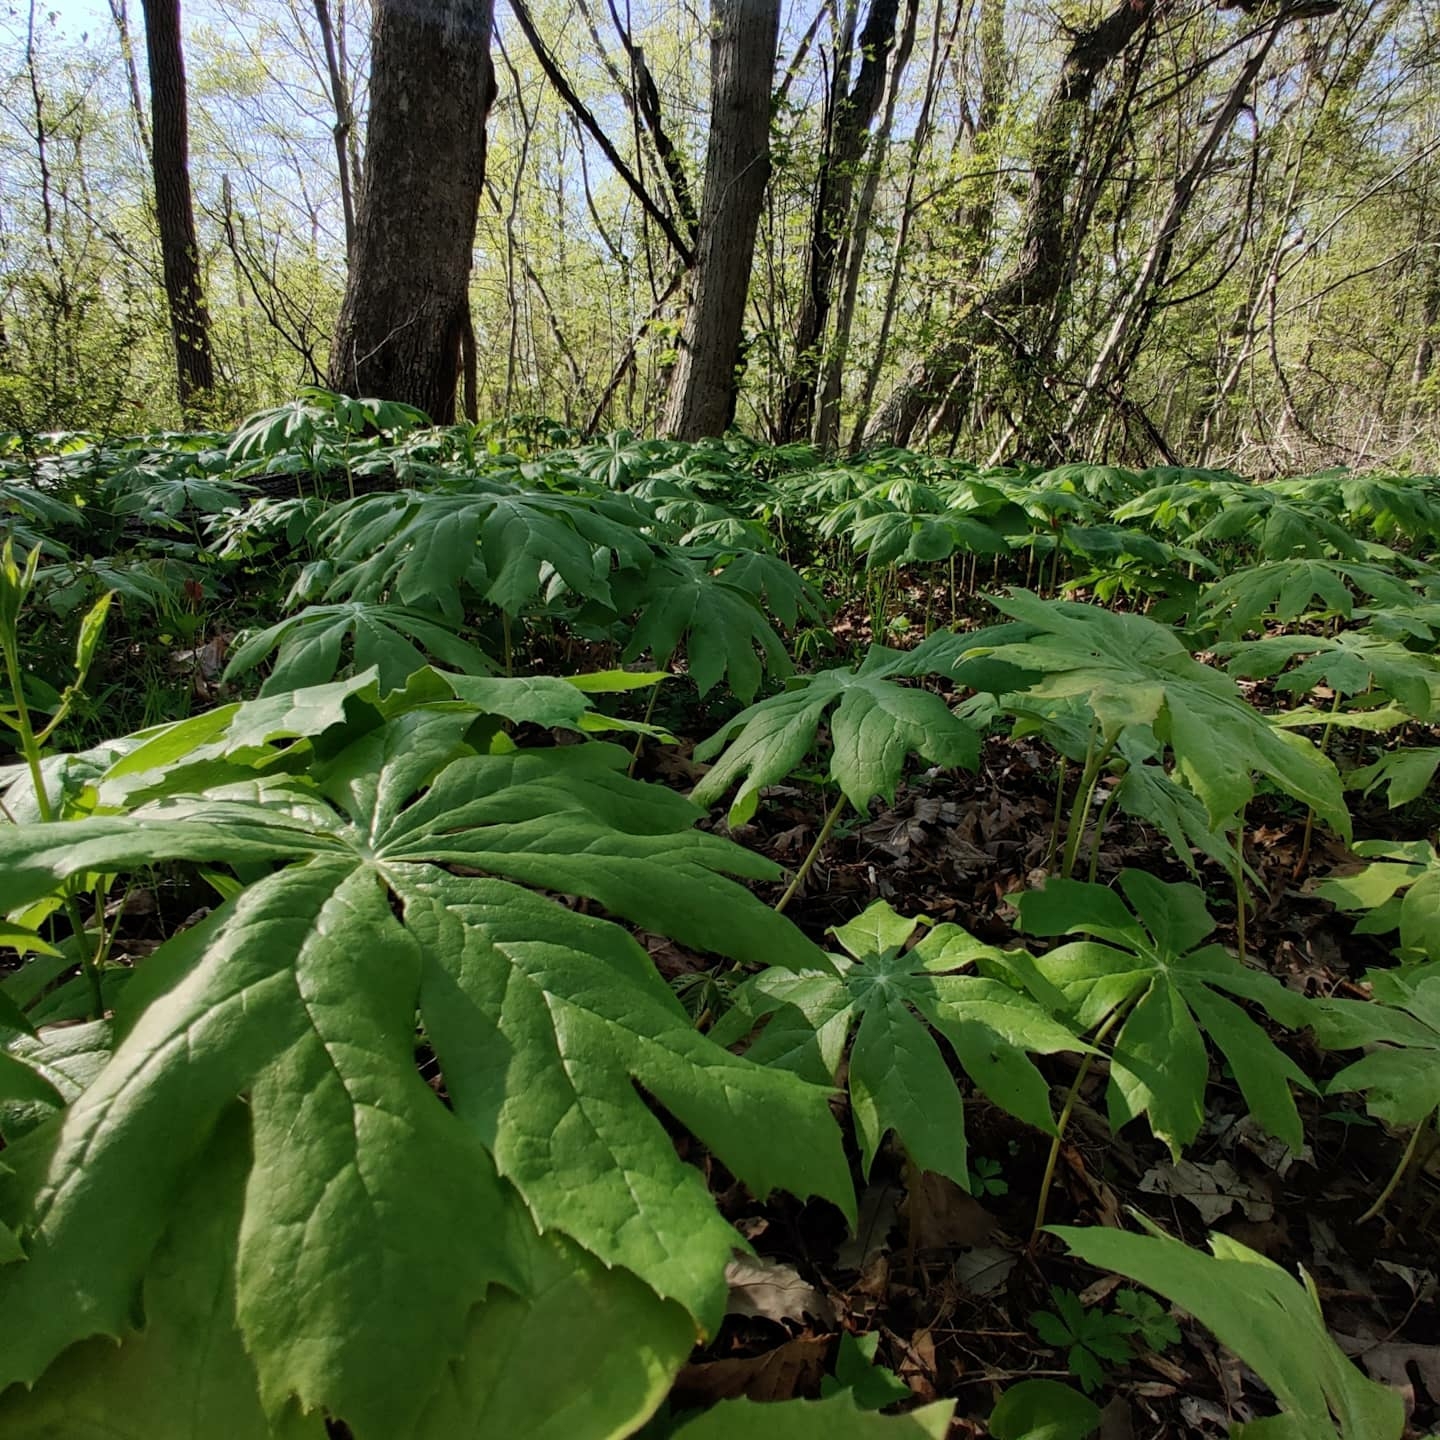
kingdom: Plantae
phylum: Tracheophyta
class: Magnoliopsida
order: Ranunculales
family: Berberidaceae
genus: Podophyllum
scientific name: Podophyllum peltatum
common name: Wild mandrake
